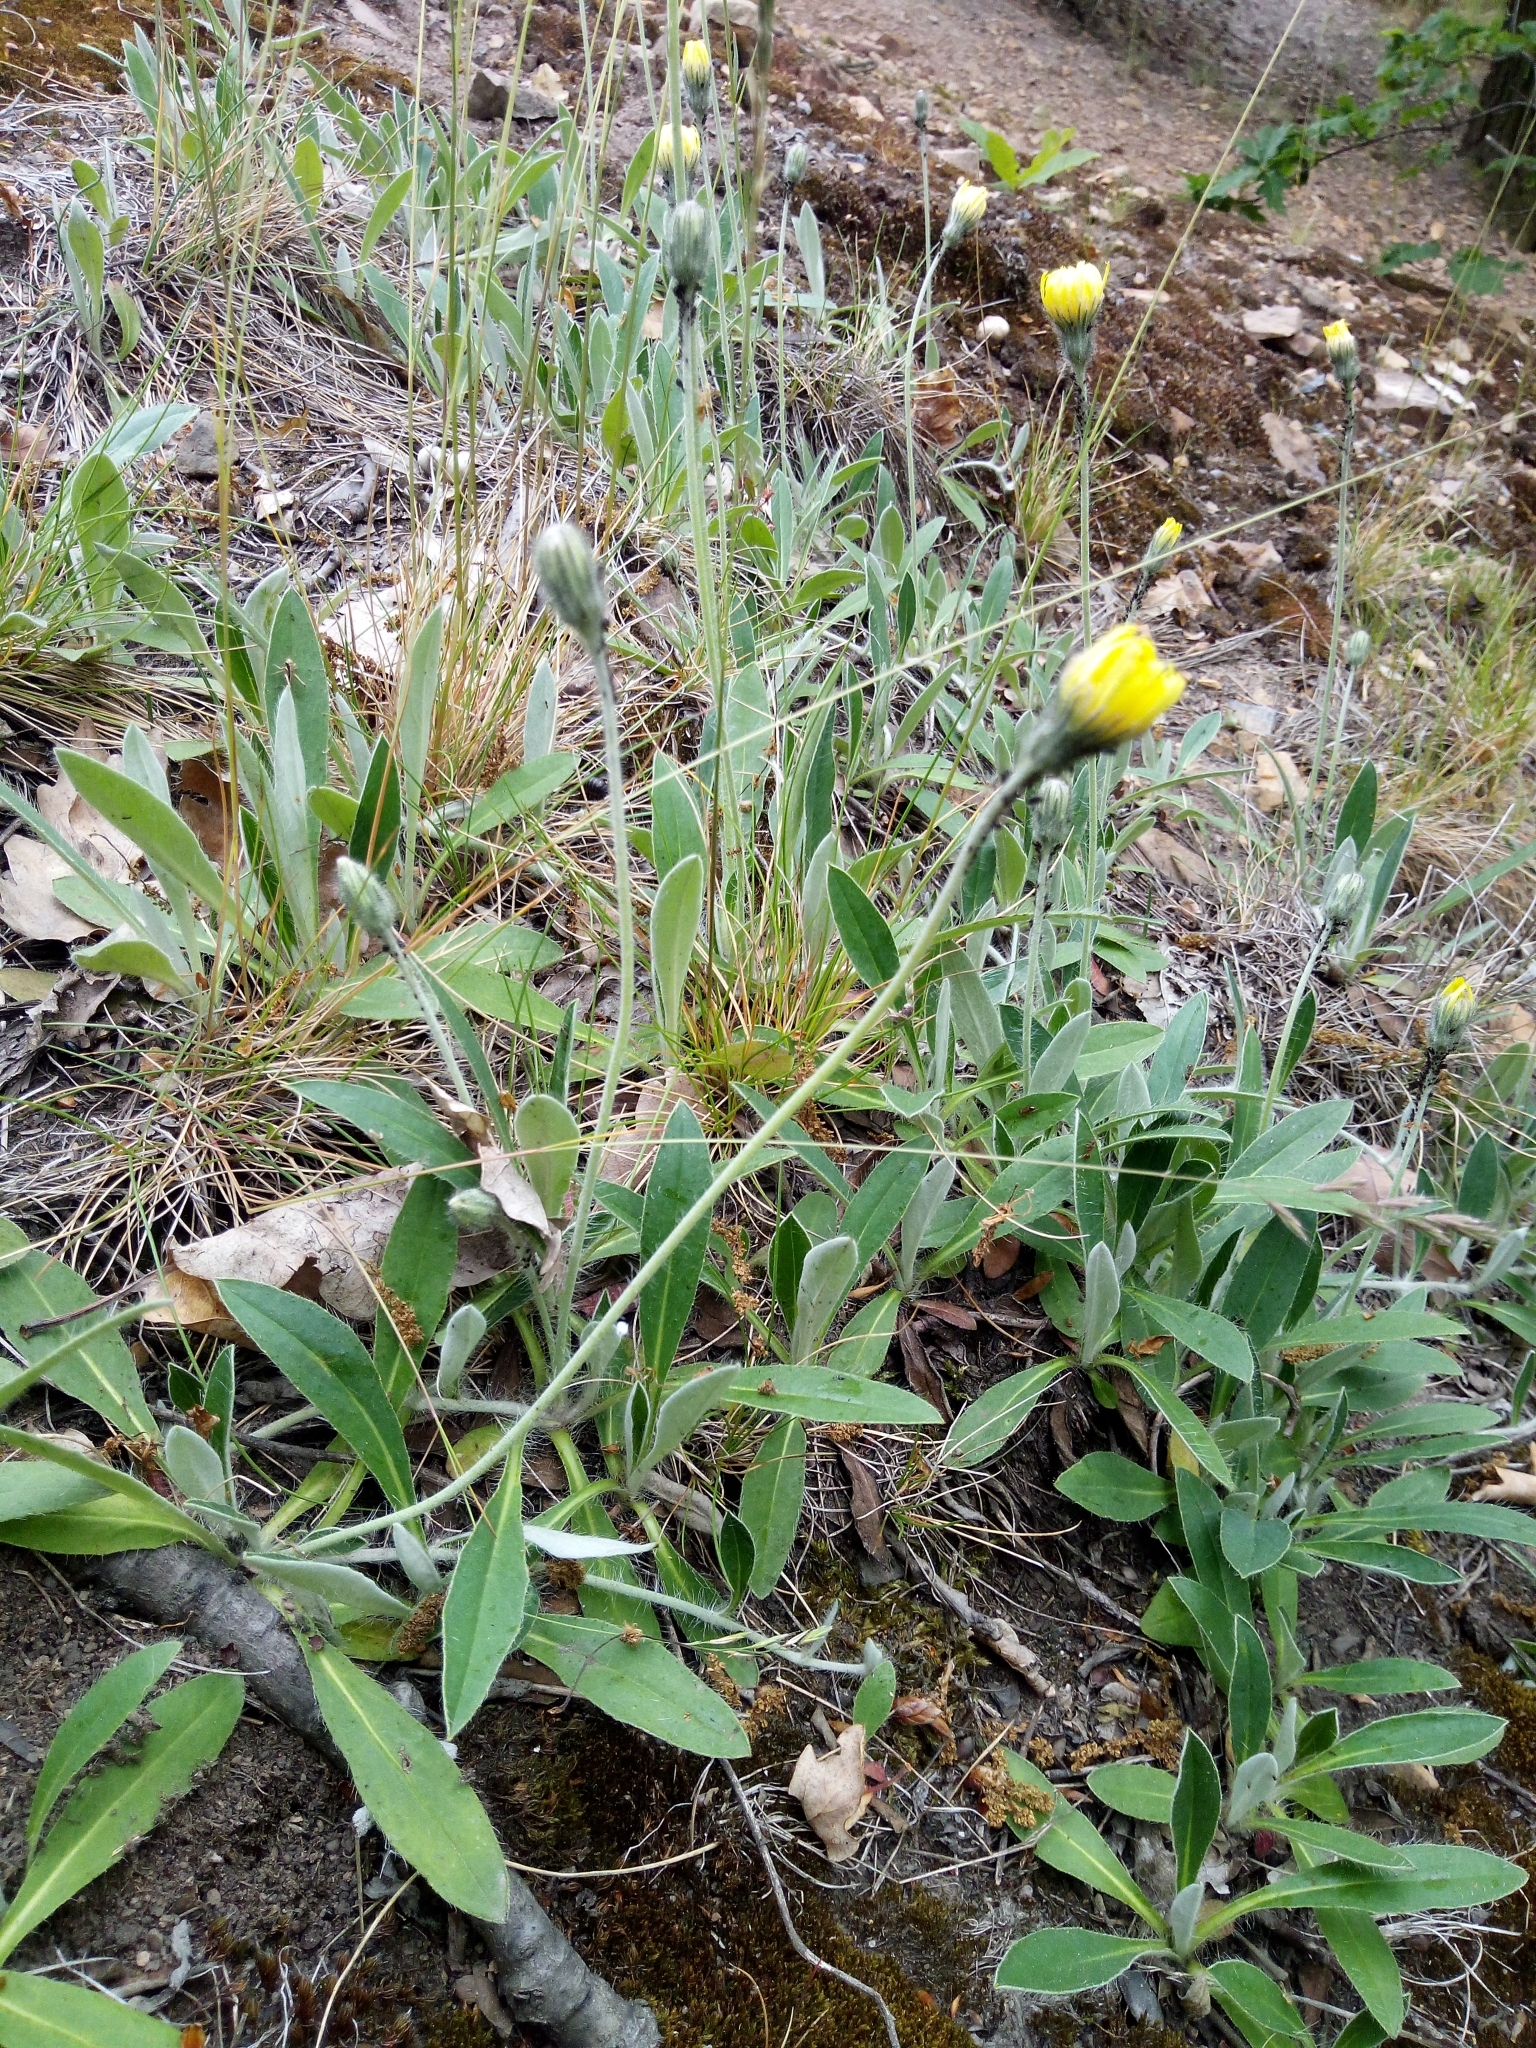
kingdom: Plantae
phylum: Tracheophyta
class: Magnoliopsida
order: Asterales
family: Asteraceae
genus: Pilosella
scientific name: Pilosella officinarum
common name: Mouse-ear hawkweed
